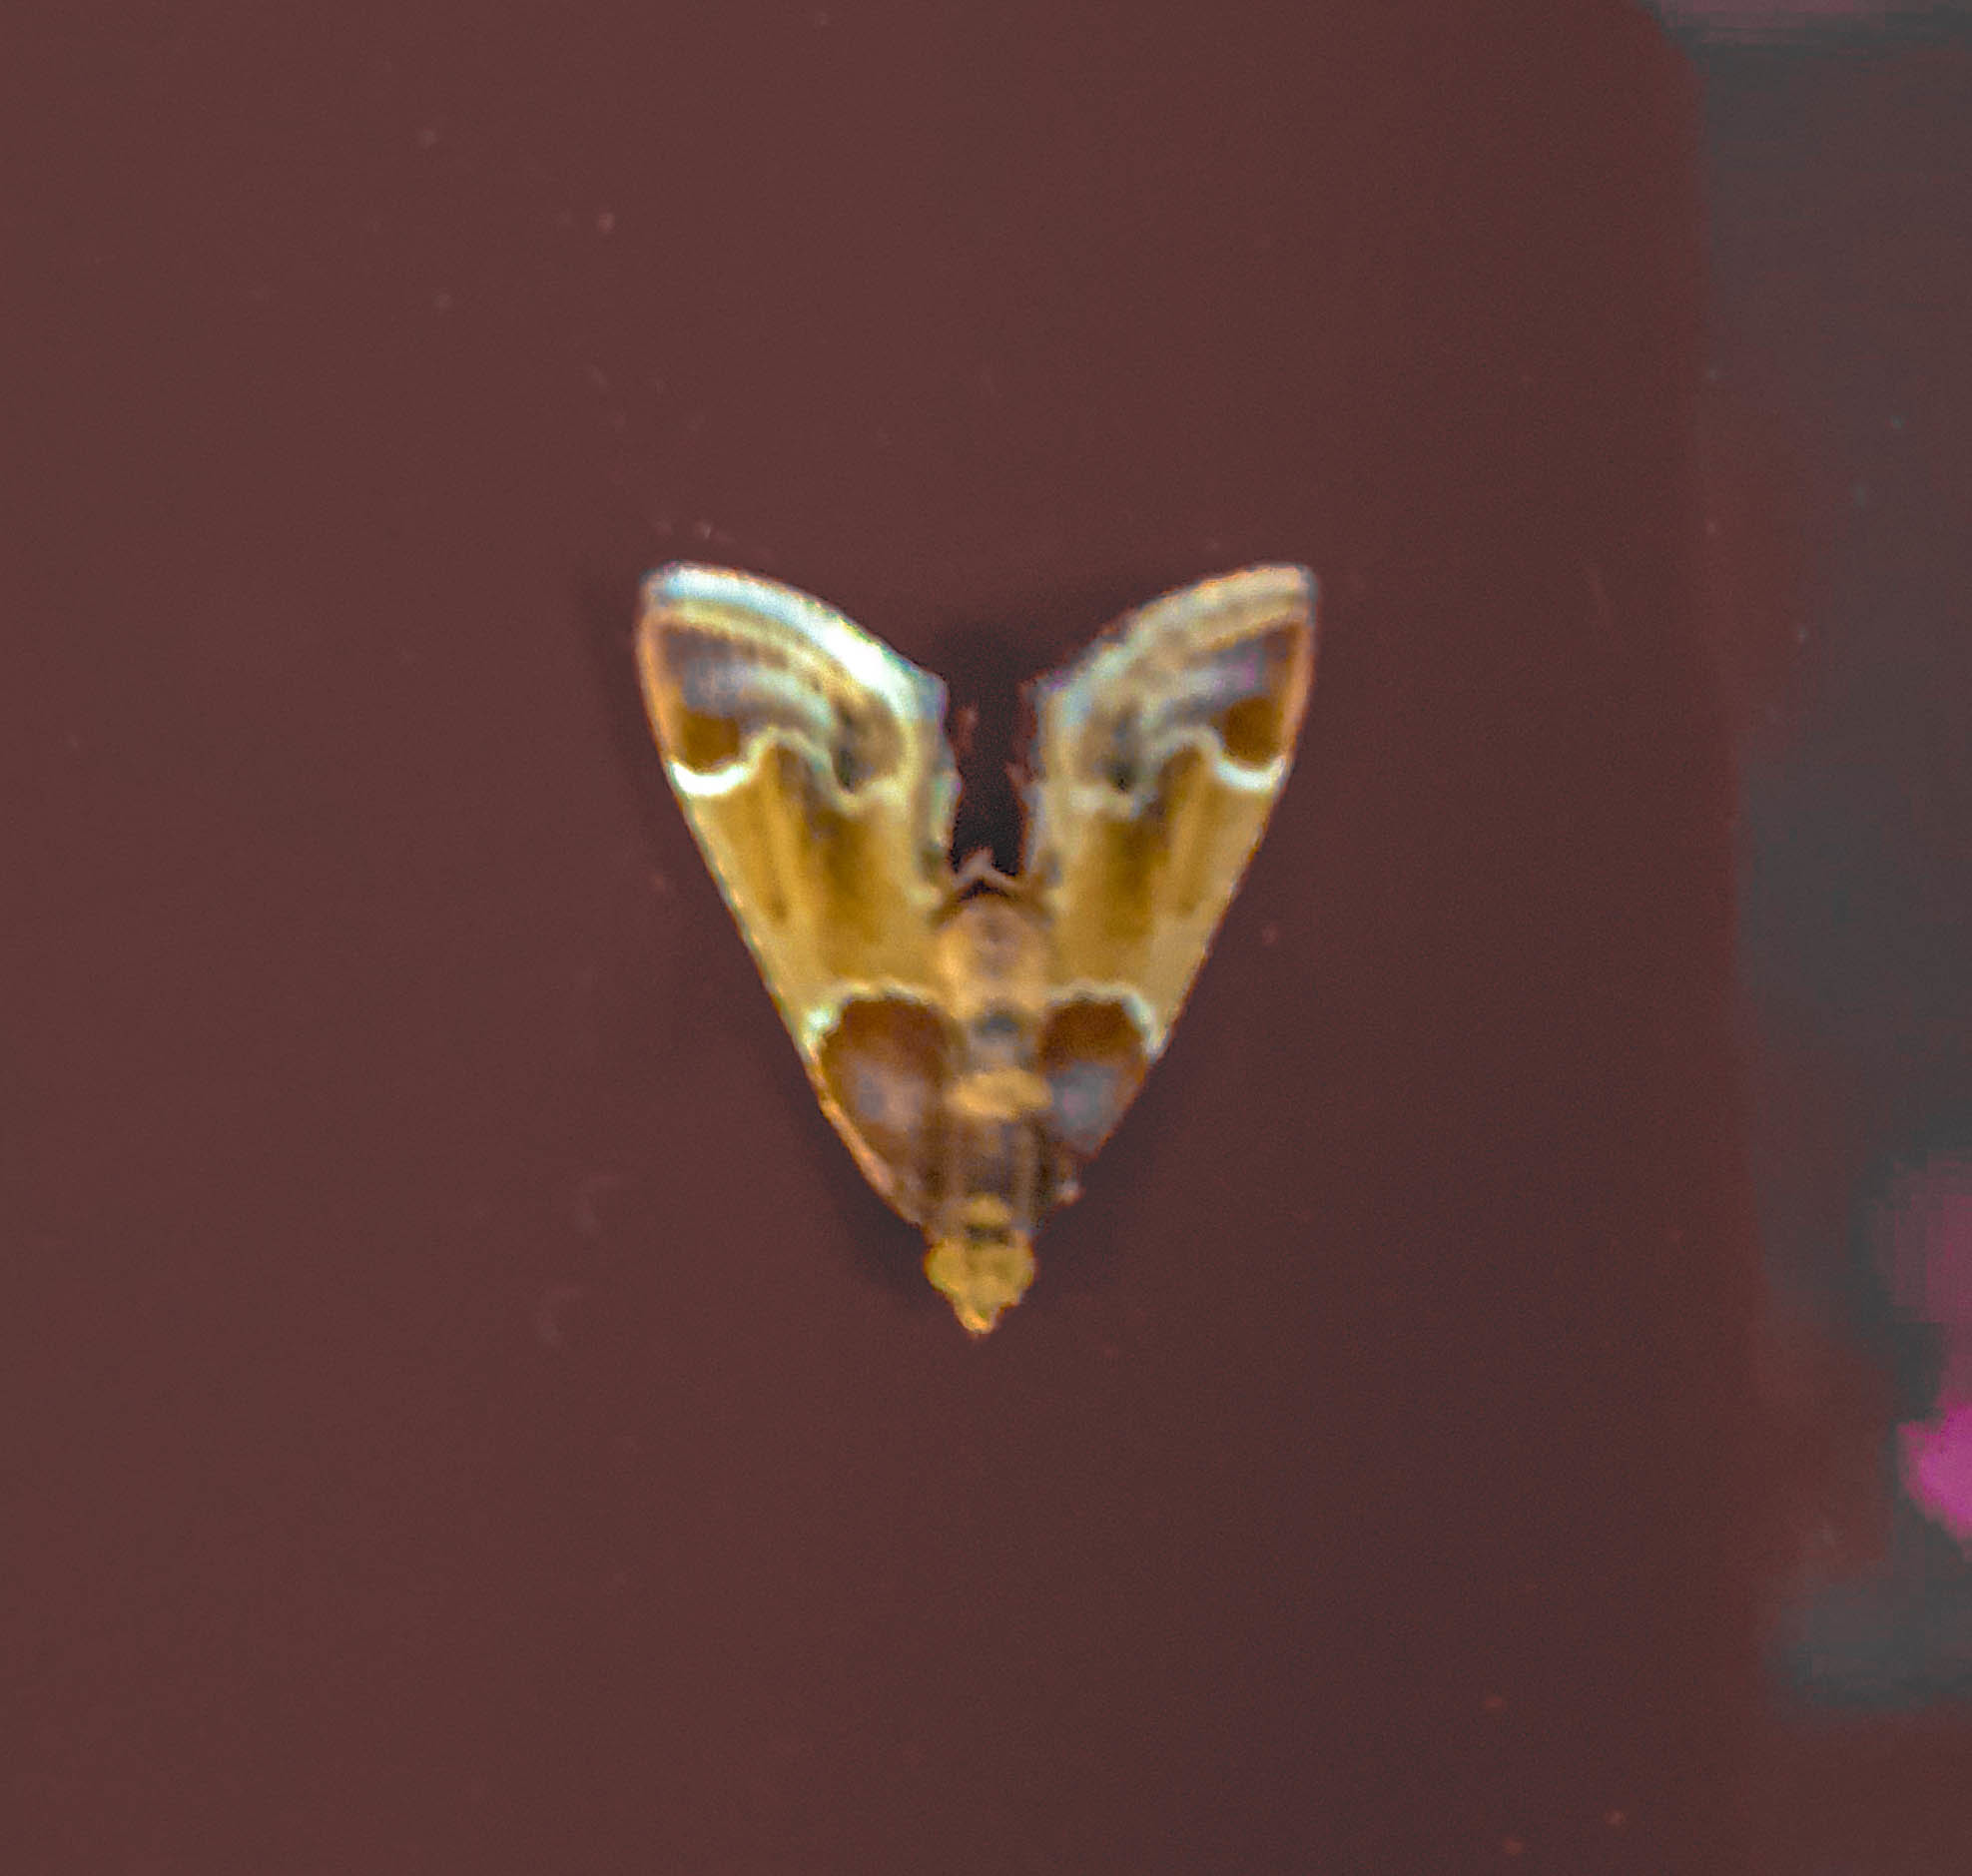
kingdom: Animalia
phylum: Arthropoda
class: Insecta
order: Lepidoptera
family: Pyralidae
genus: Pyralis
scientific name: Pyralis farinalis
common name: Meal moth
